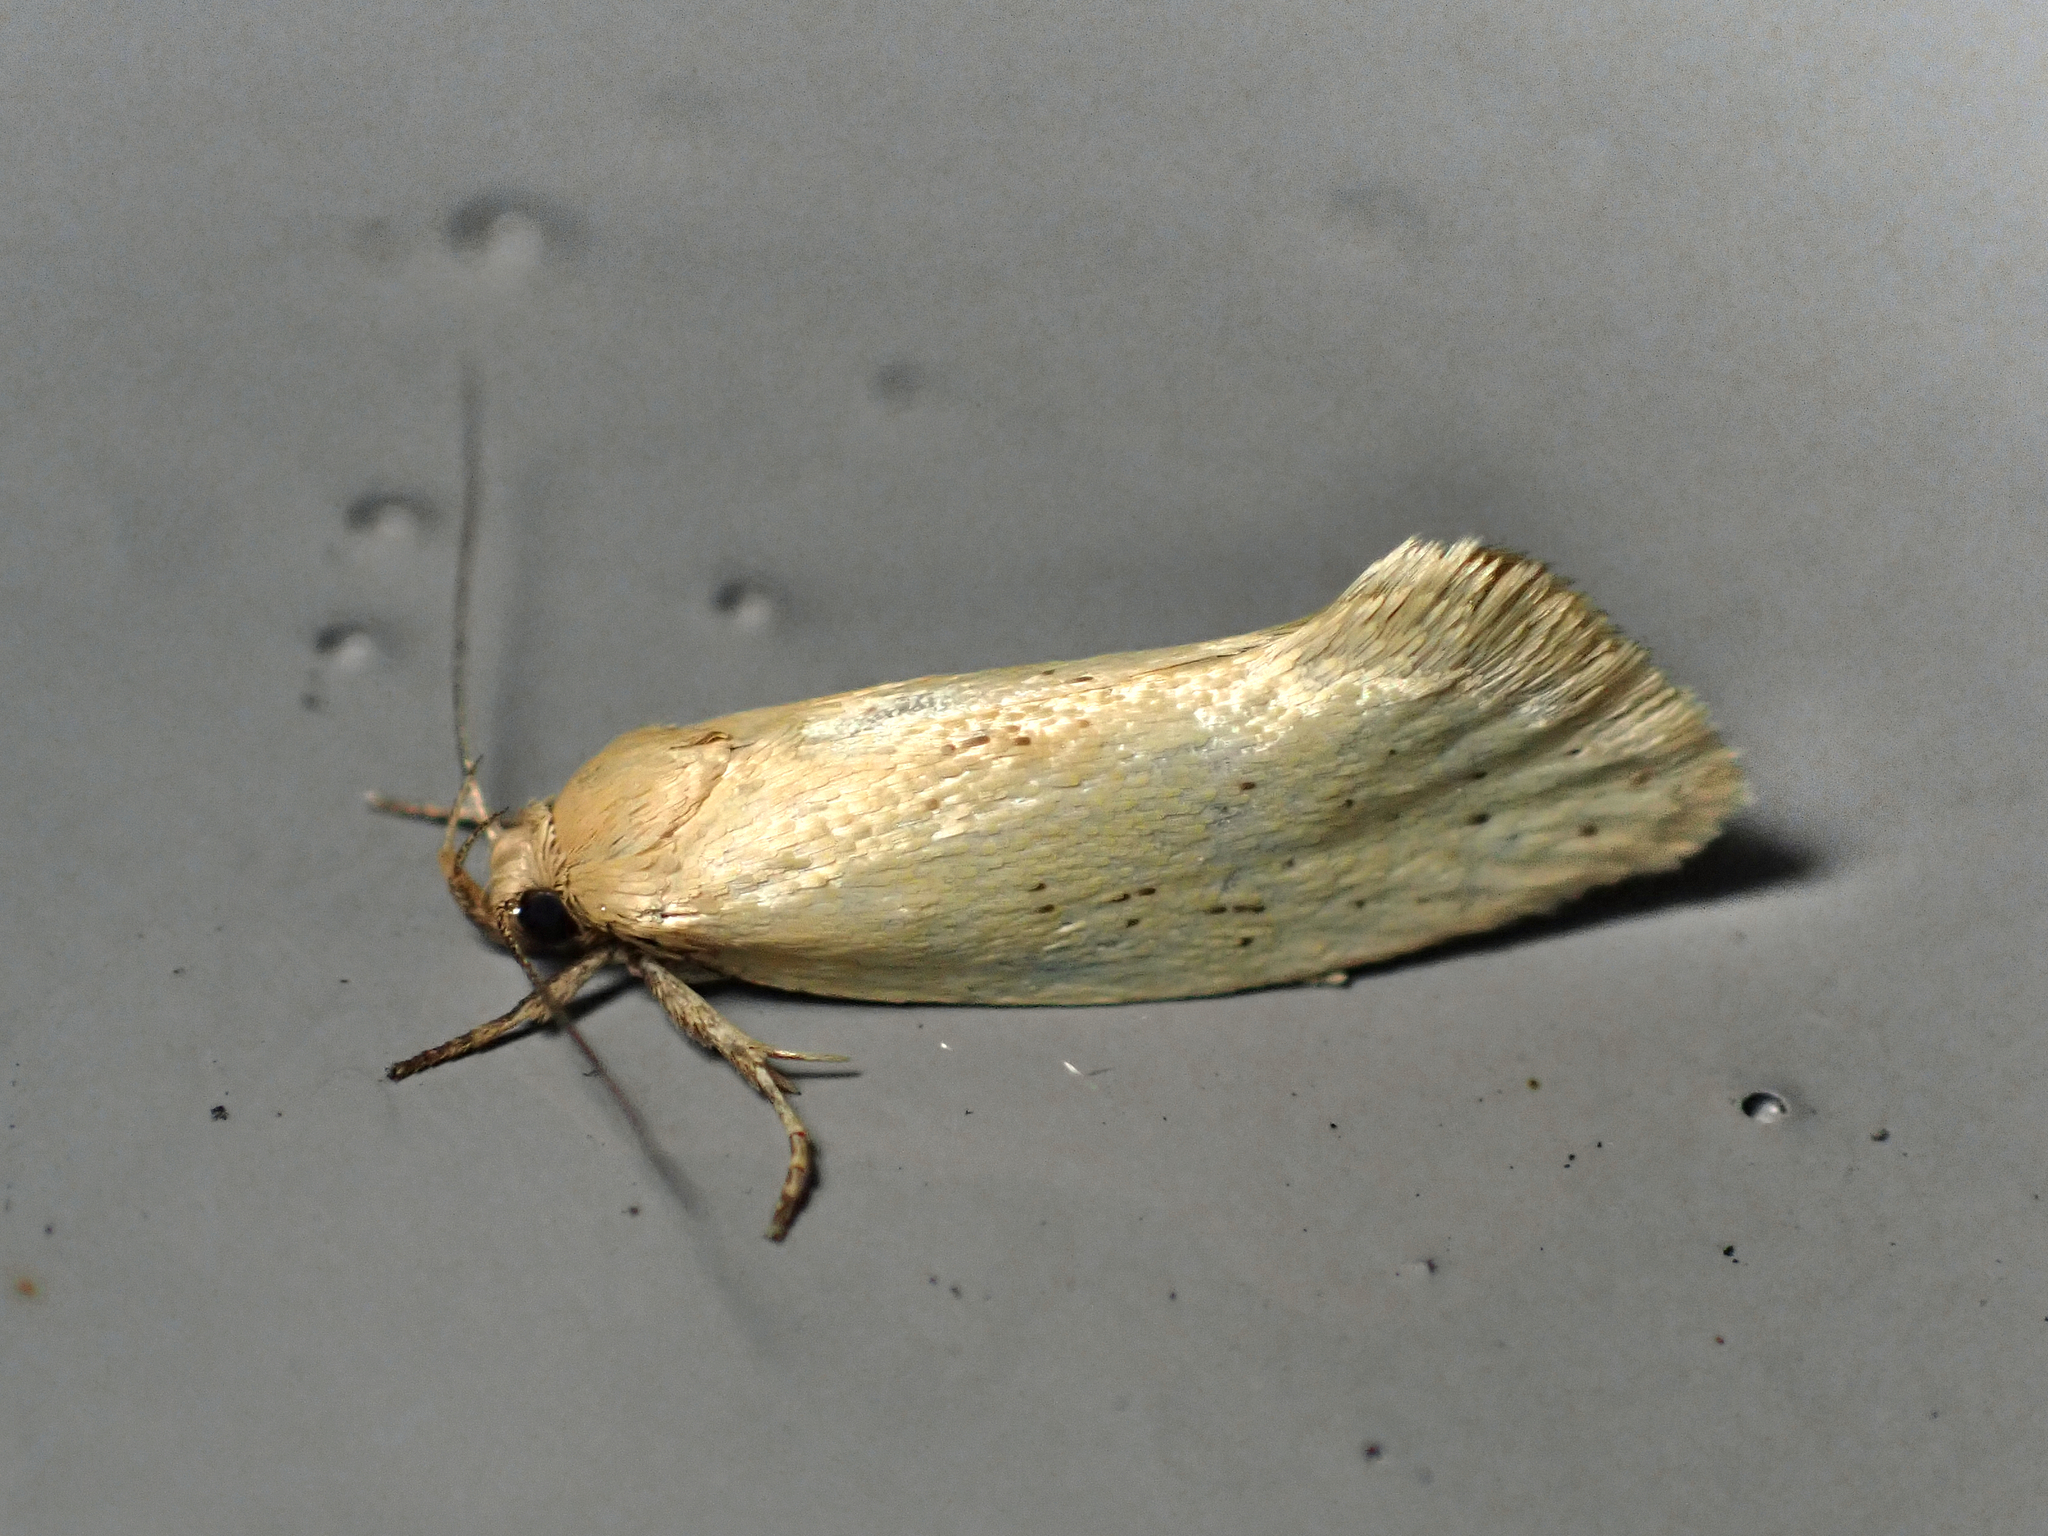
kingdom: Animalia
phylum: Arthropoda
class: Insecta
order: Lepidoptera
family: Oecophoridae
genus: Tingena
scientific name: Tingena armigerella
